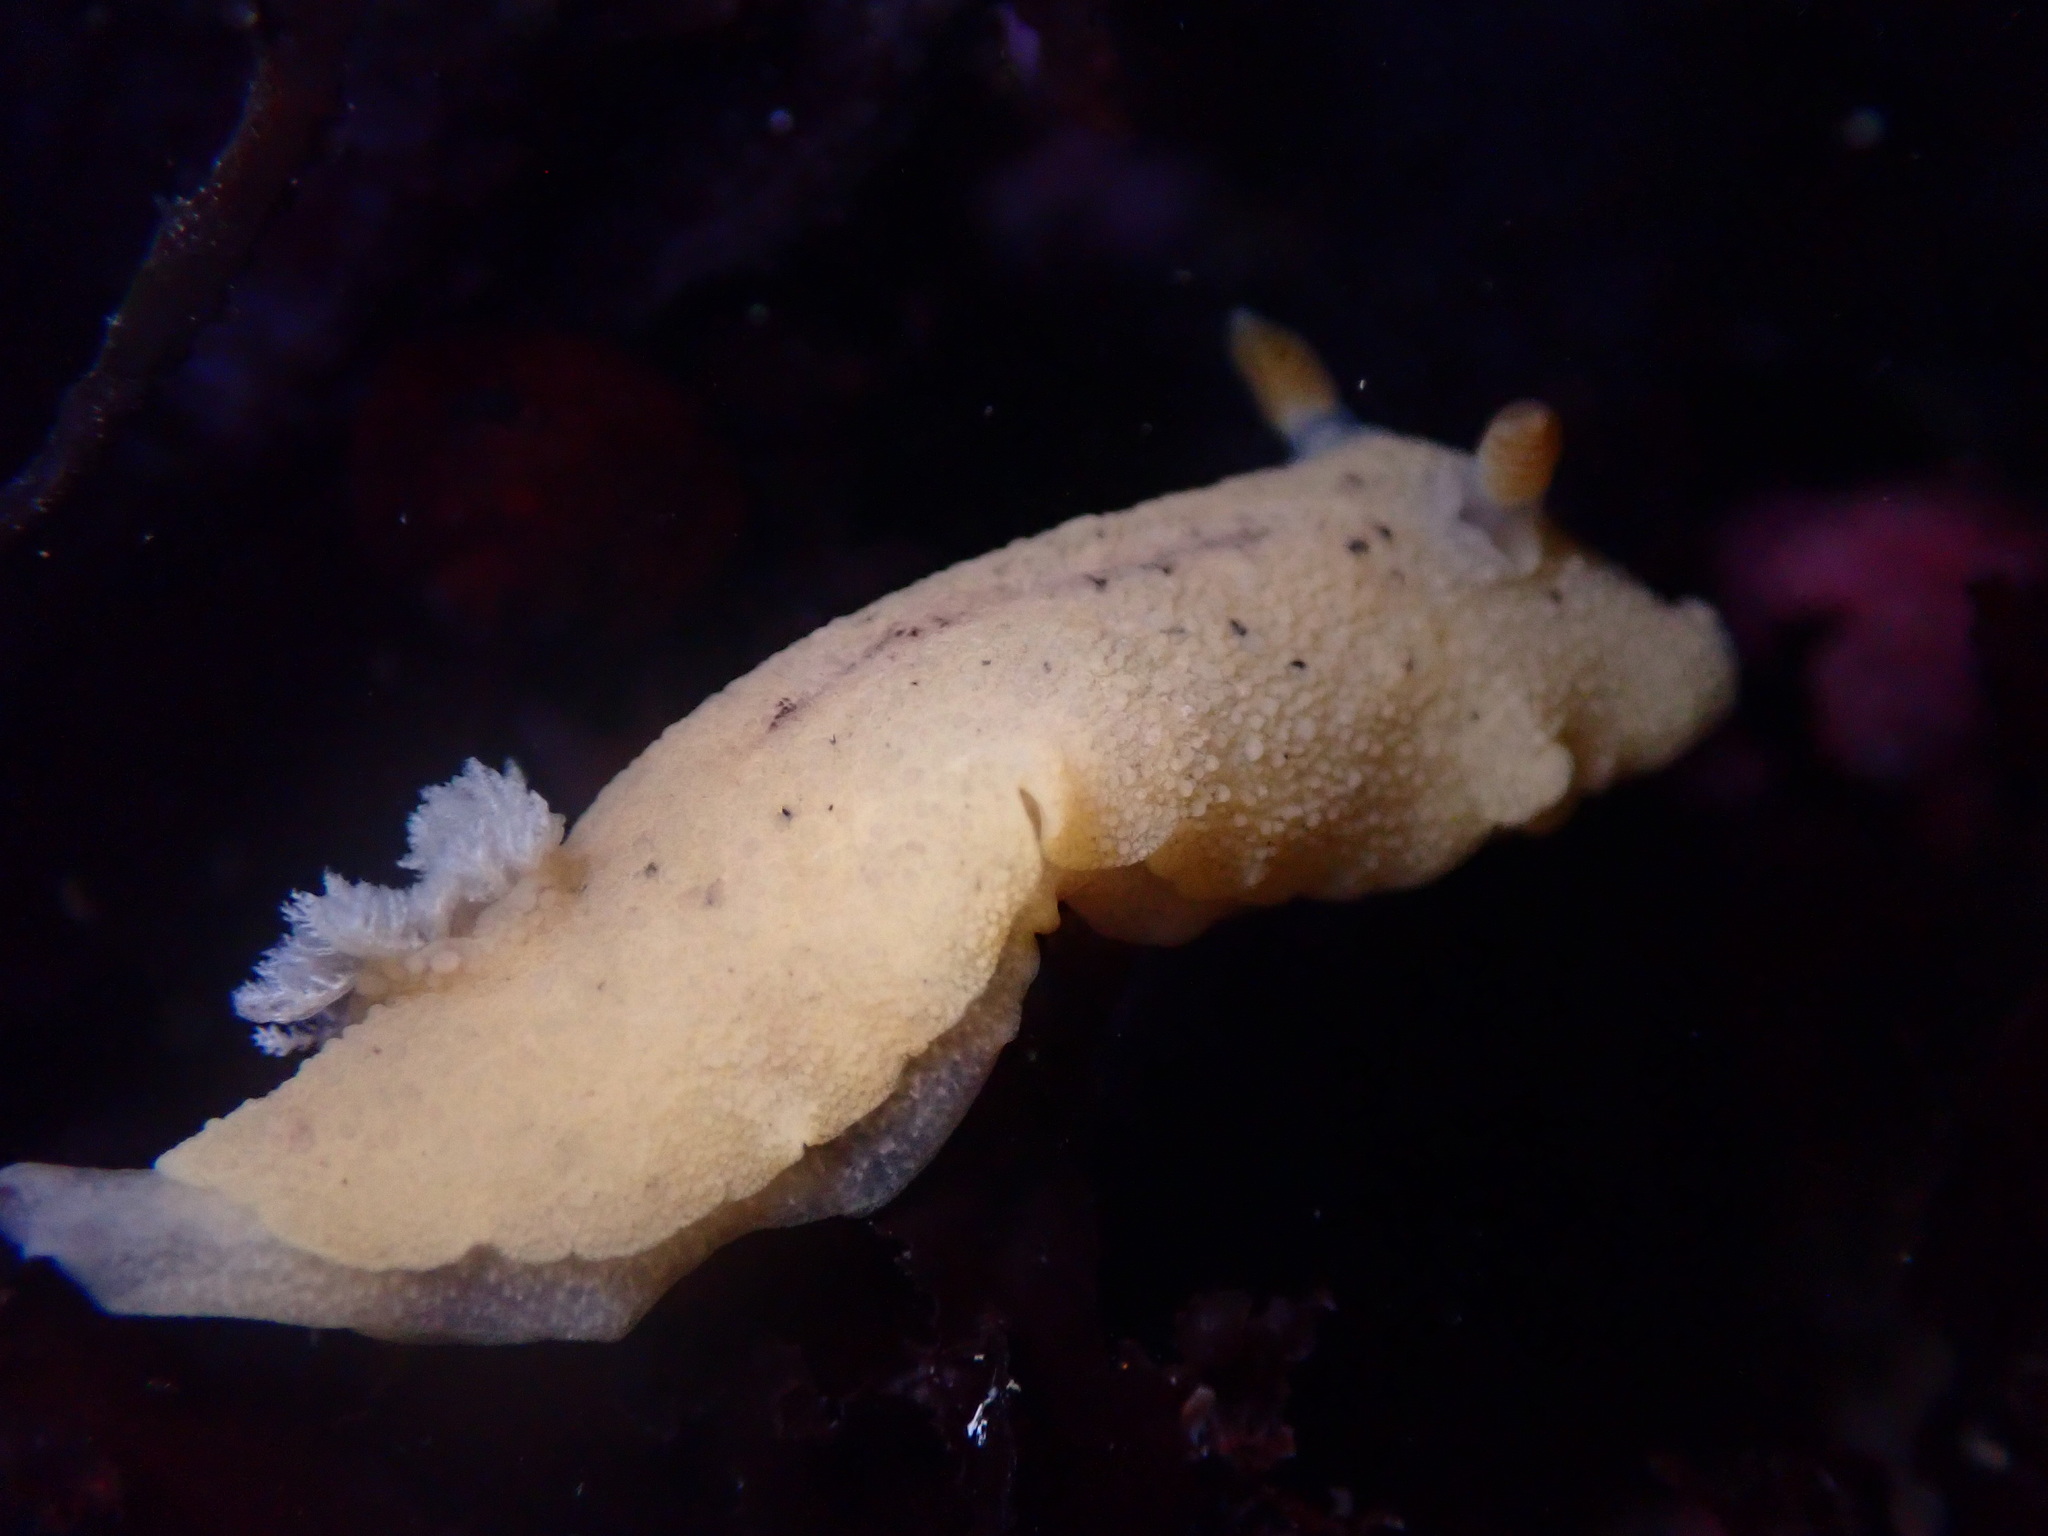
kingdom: Animalia
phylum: Mollusca
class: Gastropoda
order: Nudibranchia
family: Discodorididae
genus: Geitodoris
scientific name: Geitodoris heathi
